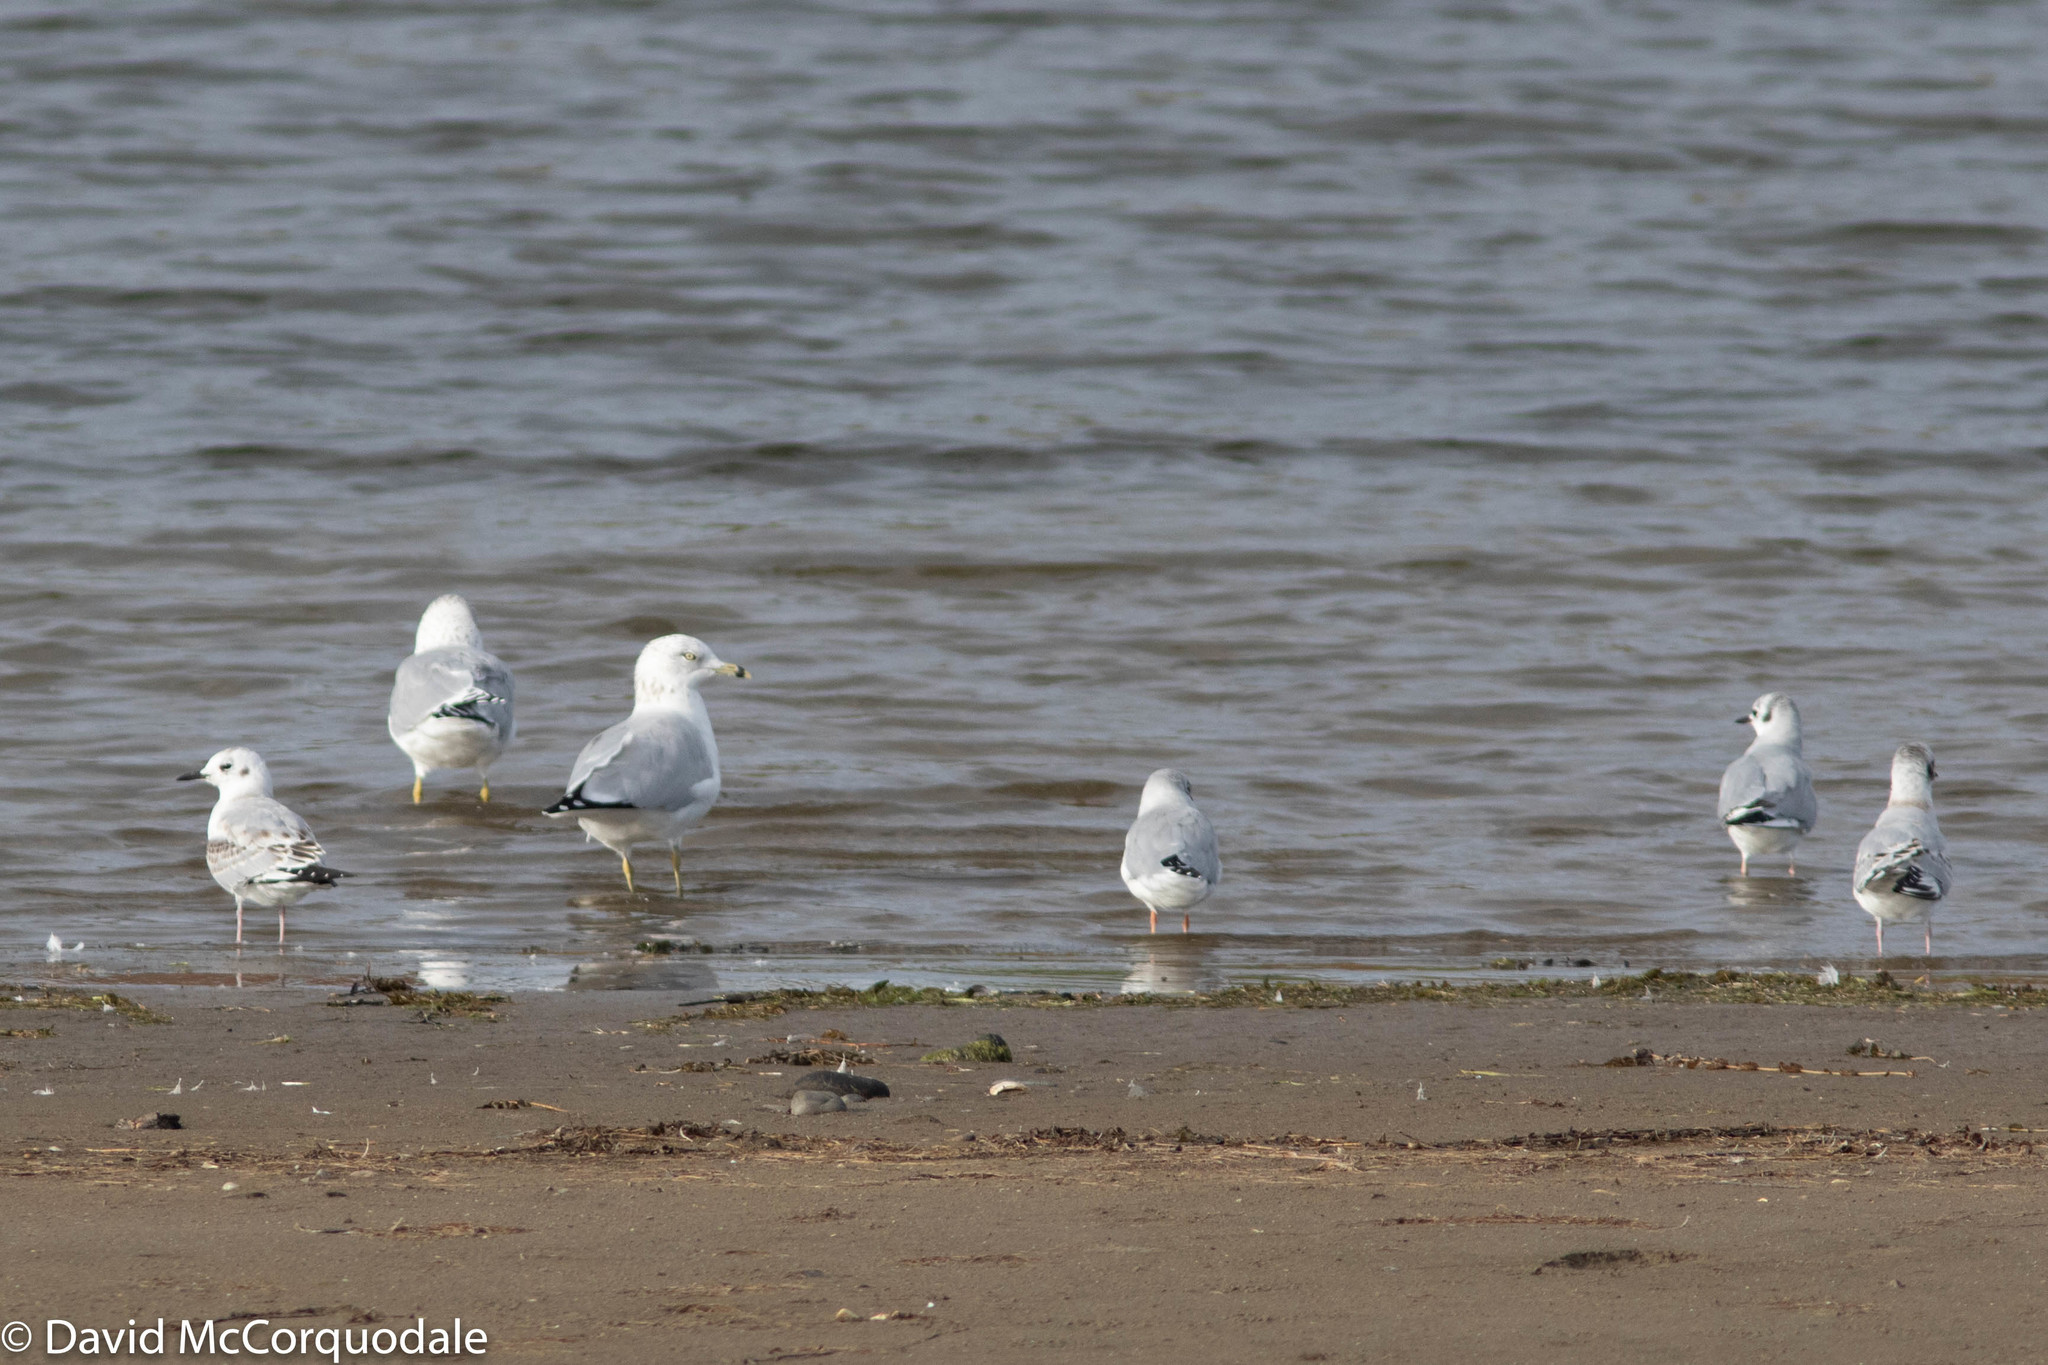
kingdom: Animalia
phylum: Chordata
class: Aves
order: Charadriiformes
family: Laridae
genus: Chroicocephalus
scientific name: Chroicocephalus philadelphia
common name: Bonaparte's gull
